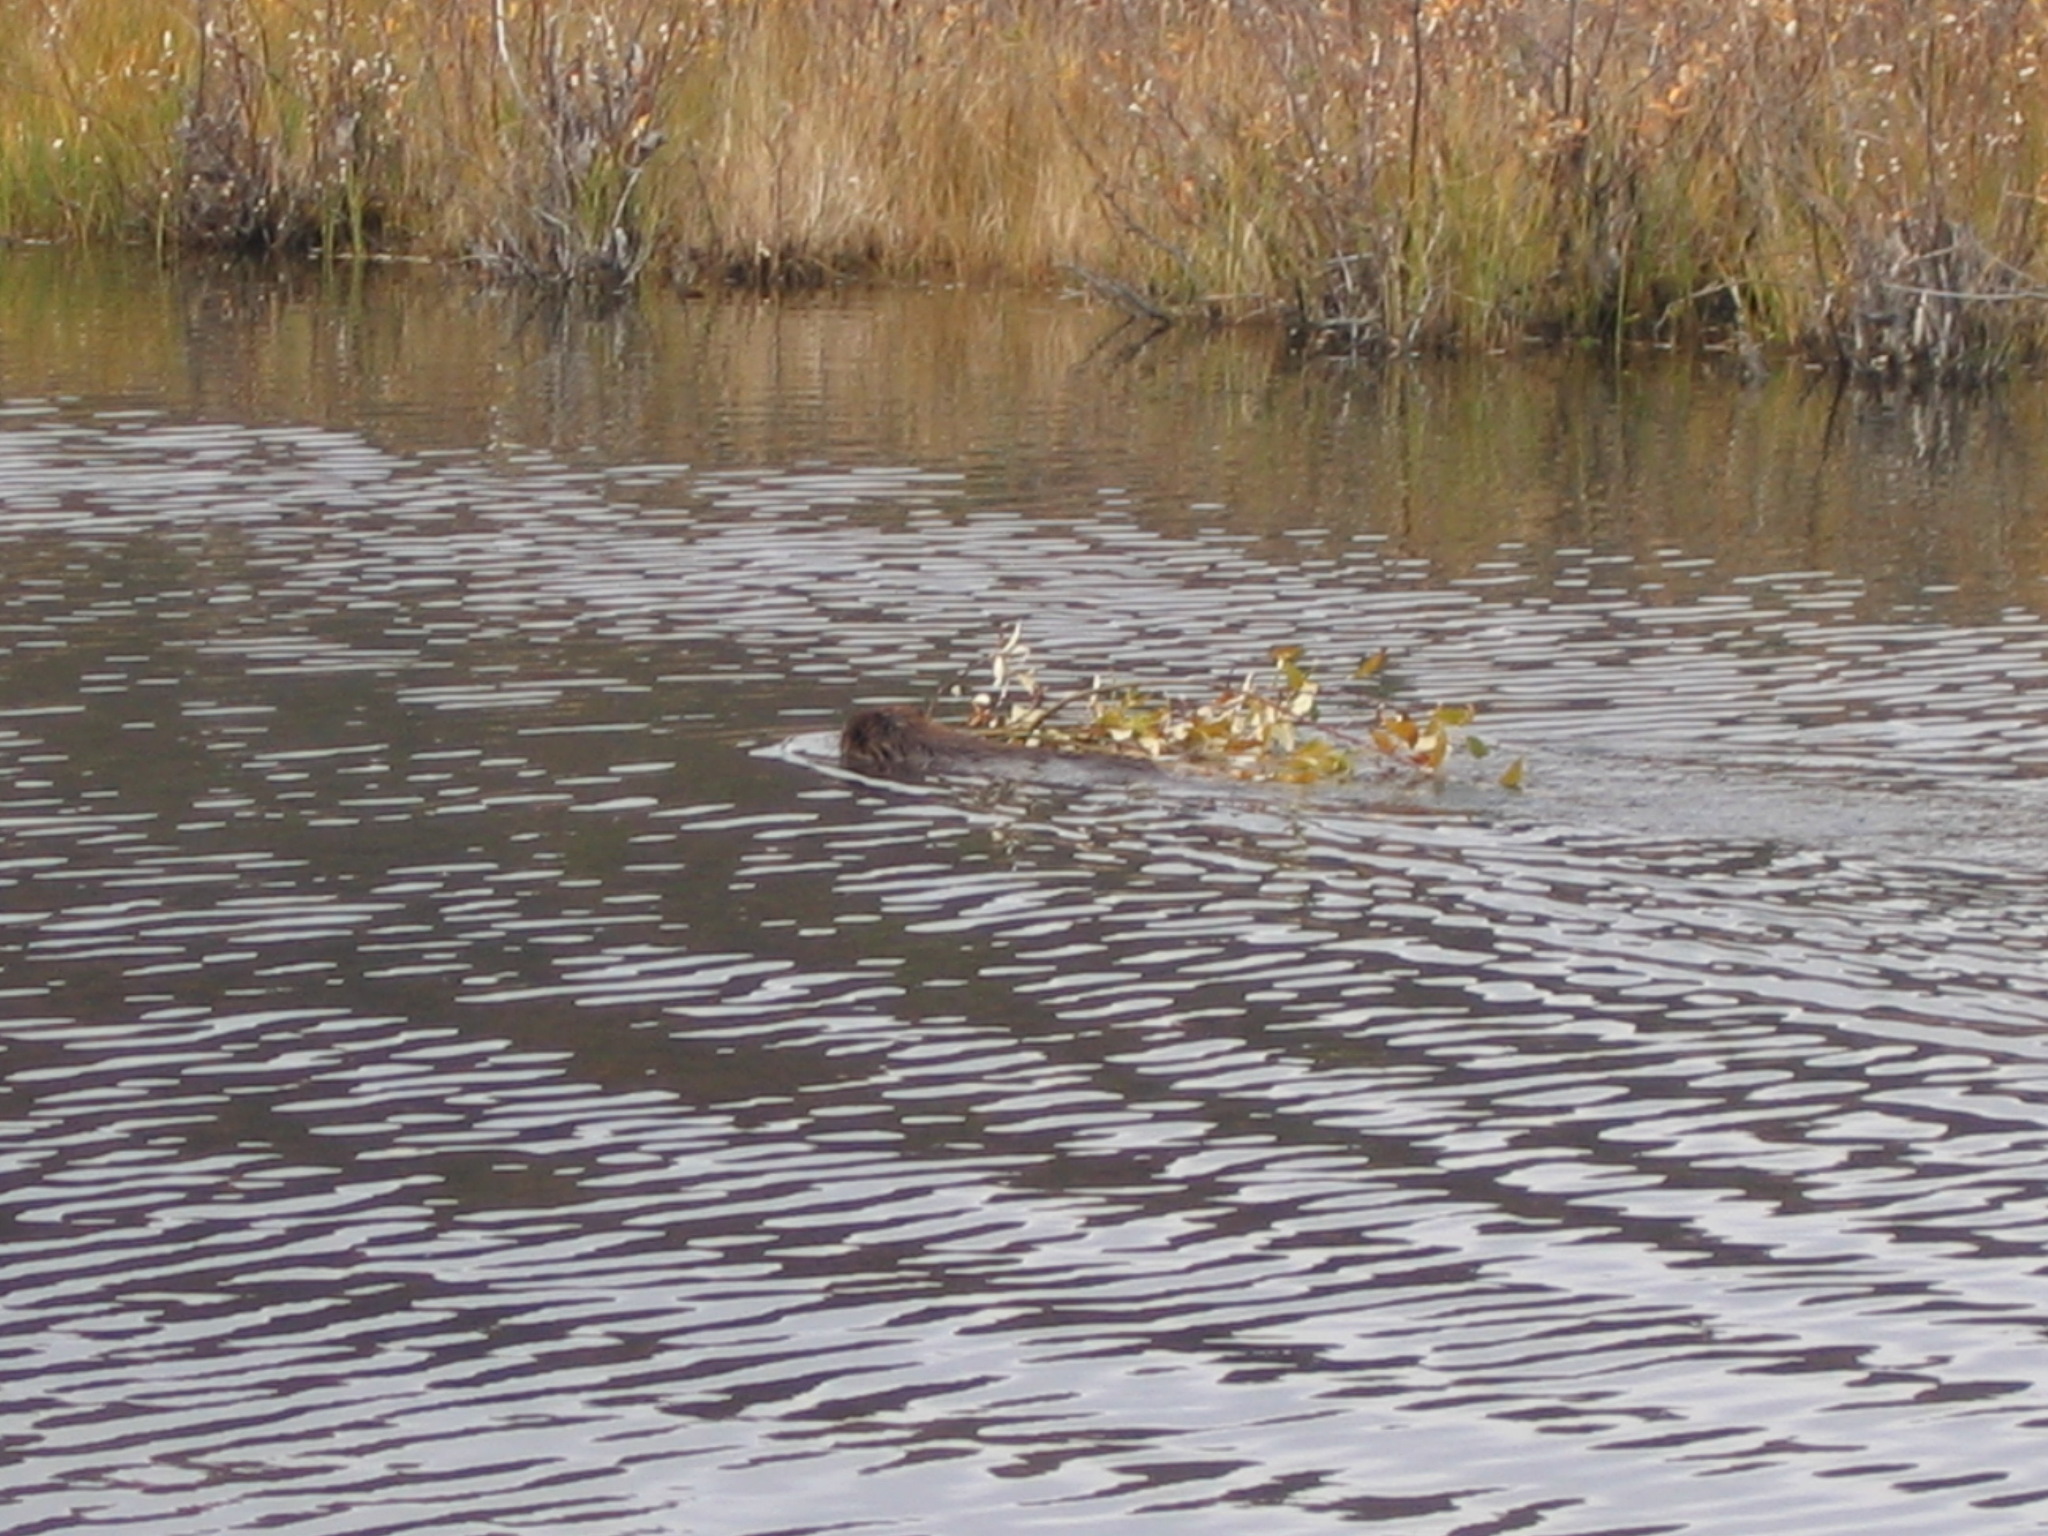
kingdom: Animalia
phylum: Chordata
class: Mammalia
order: Rodentia
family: Castoridae
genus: Castor
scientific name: Castor canadensis
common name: American beaver
